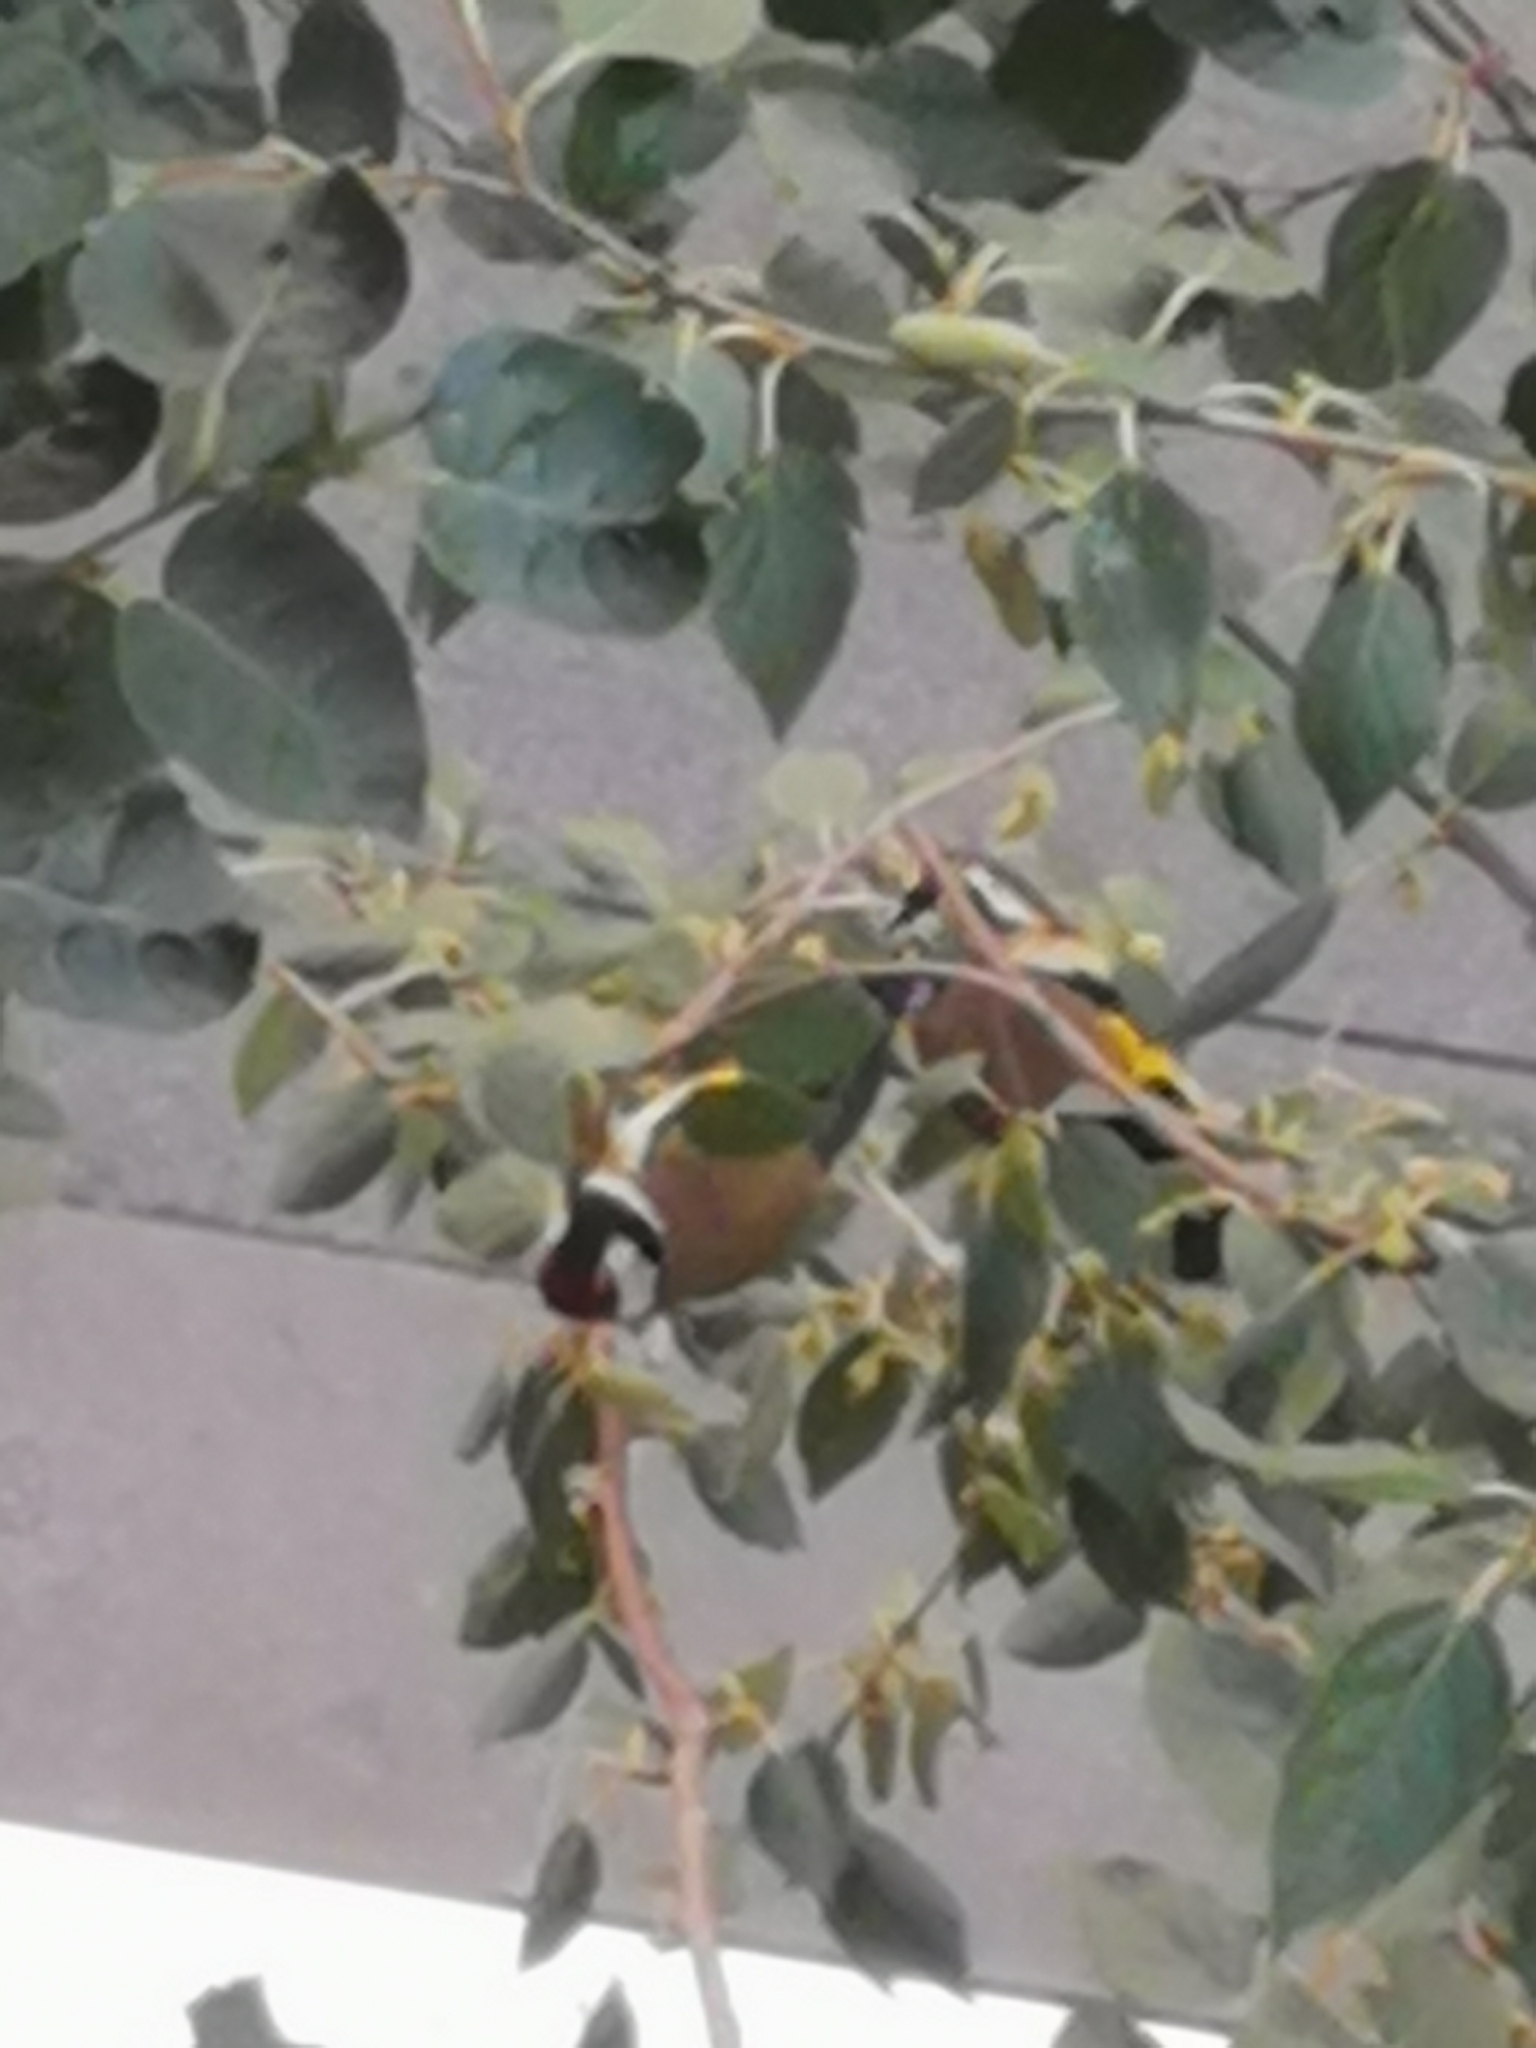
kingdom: Animalia
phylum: Chordata
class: Aves
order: Passeriformes
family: Fringillidae
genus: Carduelis
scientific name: Carduelis carduelis
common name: European goldfinch
